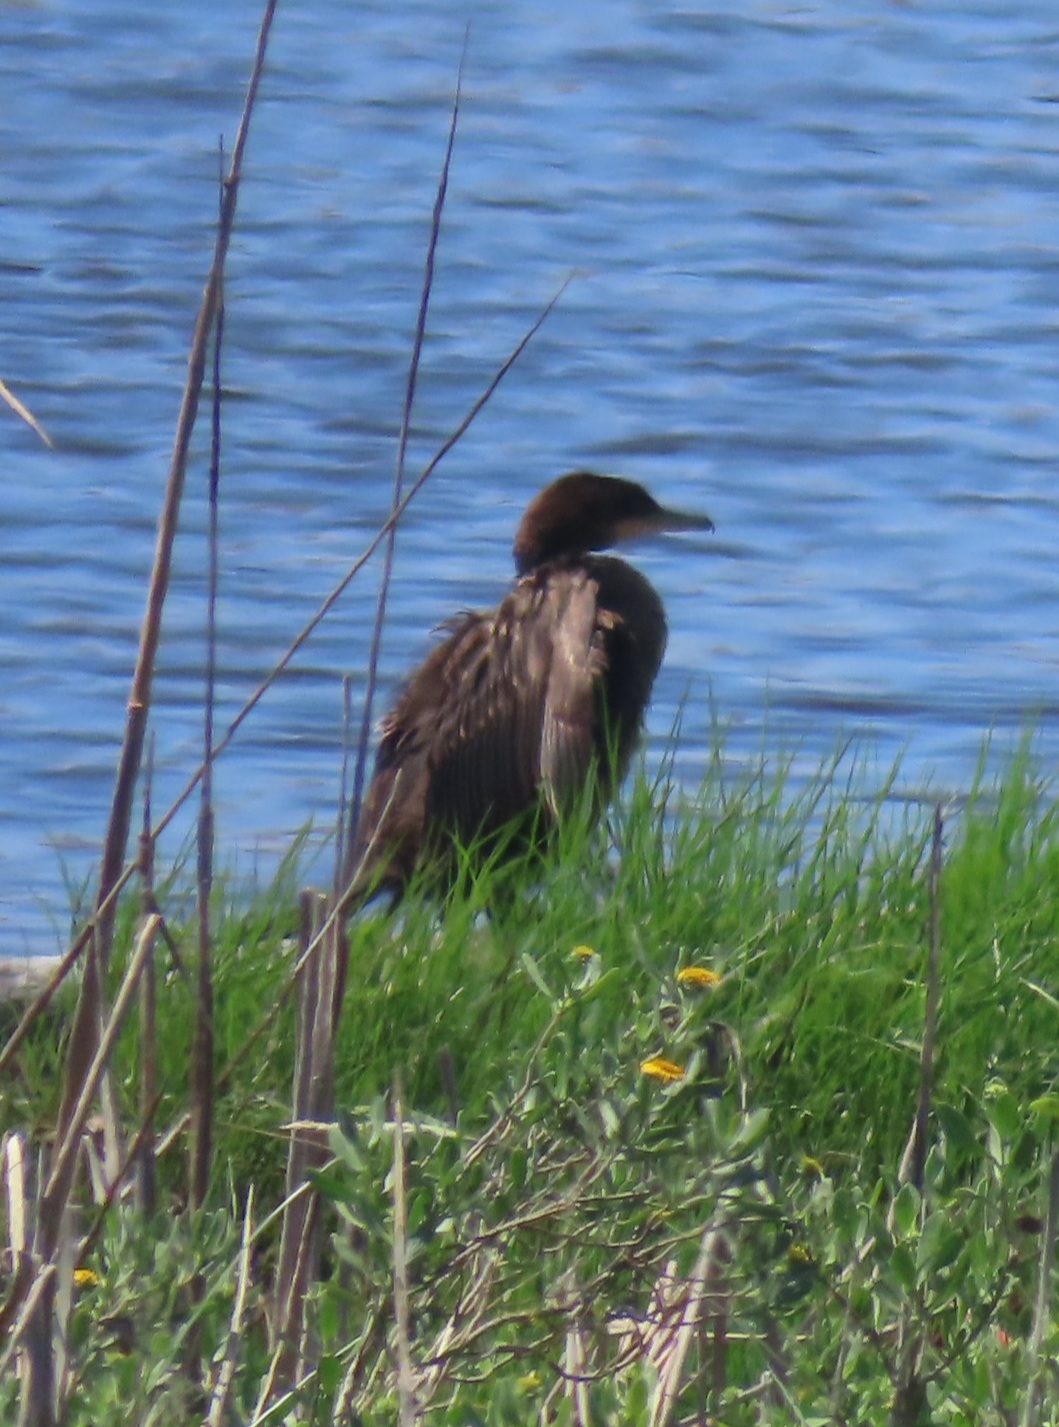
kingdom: Animalia
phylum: Chordata
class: Aves
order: Suliformes
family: Phalacrocoracidae
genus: Phalacrocorax
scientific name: Phalacrocorax brasilianus
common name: Neotropic cormorant
